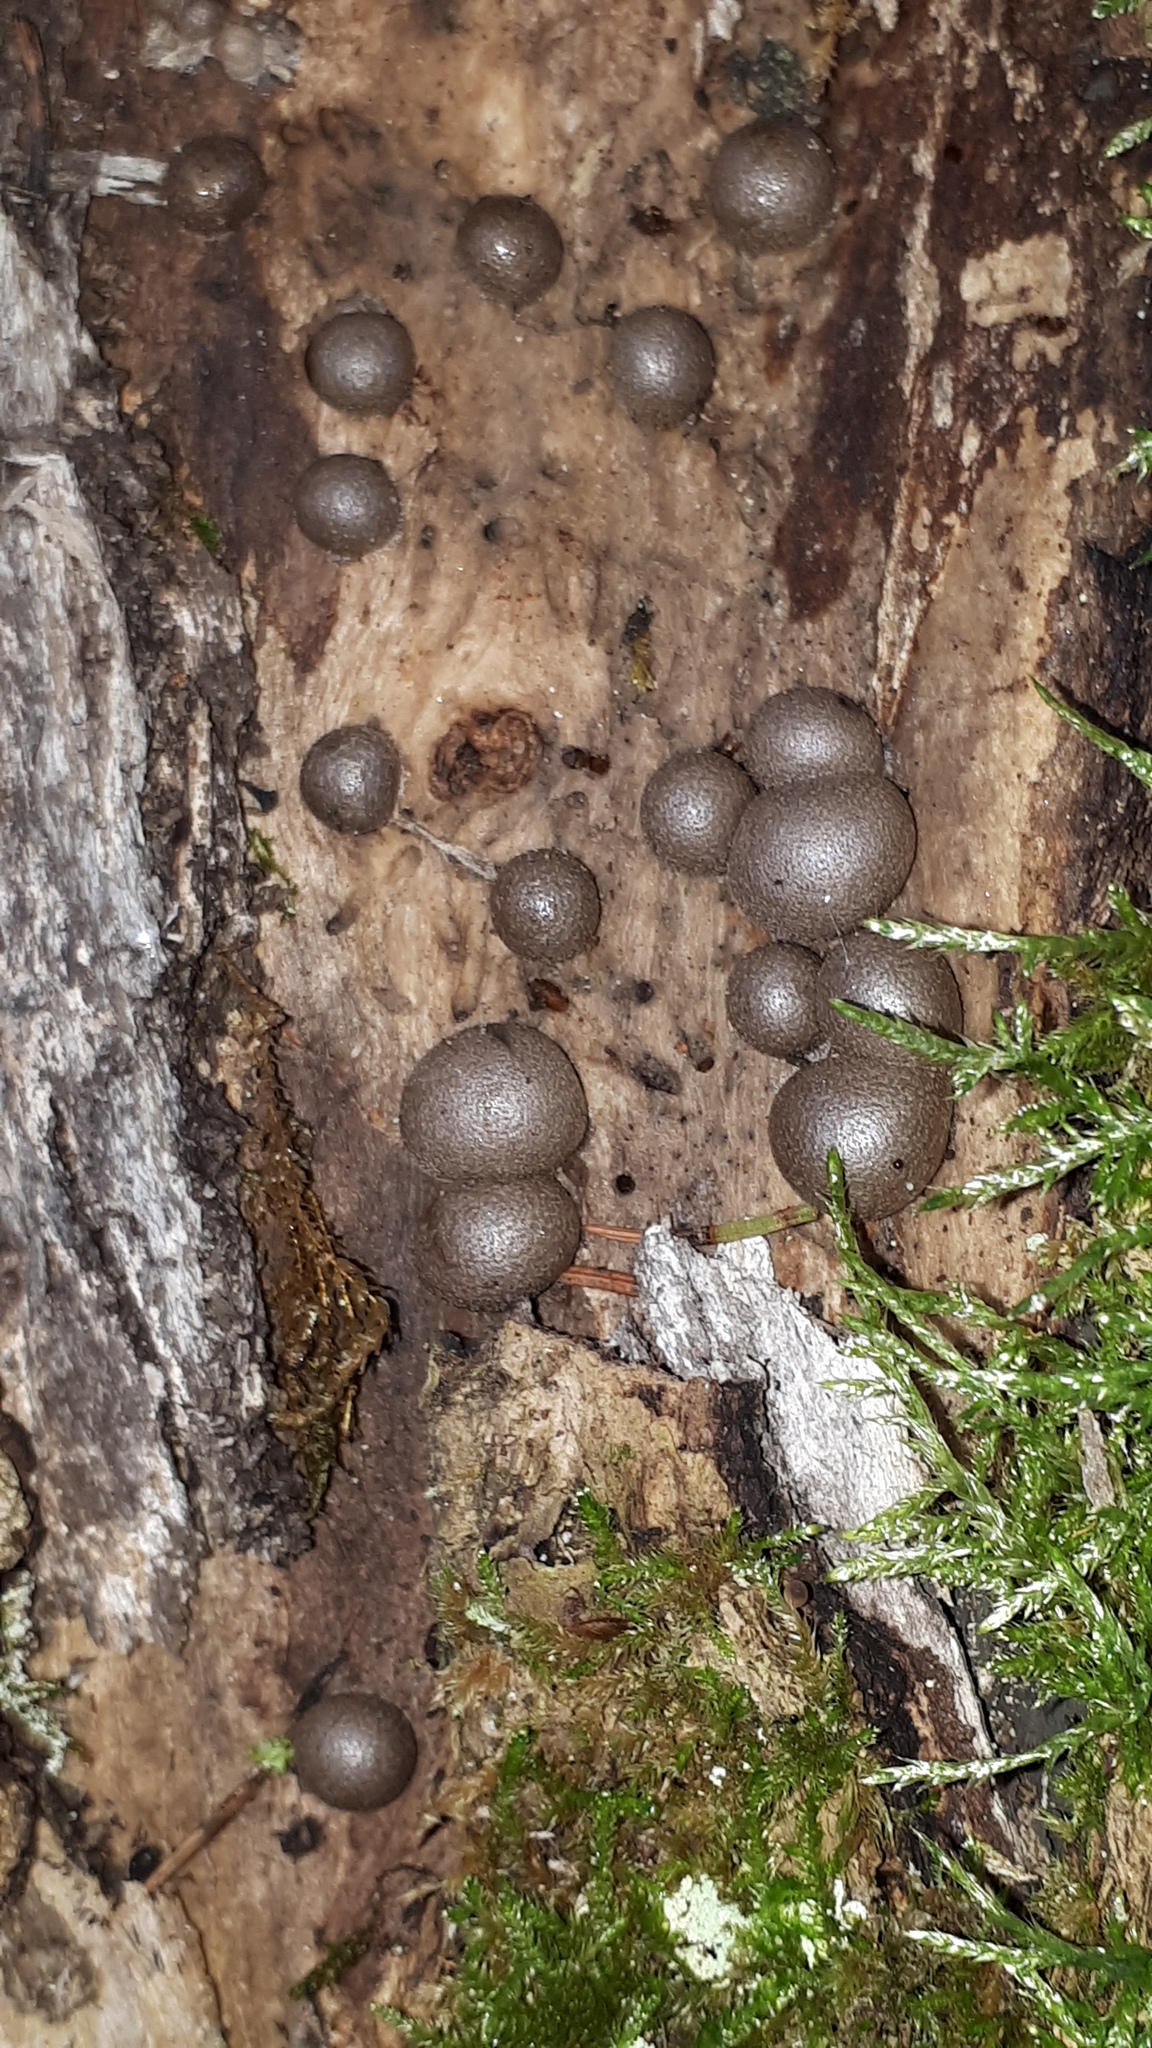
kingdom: Protozoa
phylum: Mycetozoa
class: Myxomycetes
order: Cribrariales
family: Tubiferaceae
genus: Lycogala
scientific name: Lycogala epidendrum
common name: Wolf's milk
